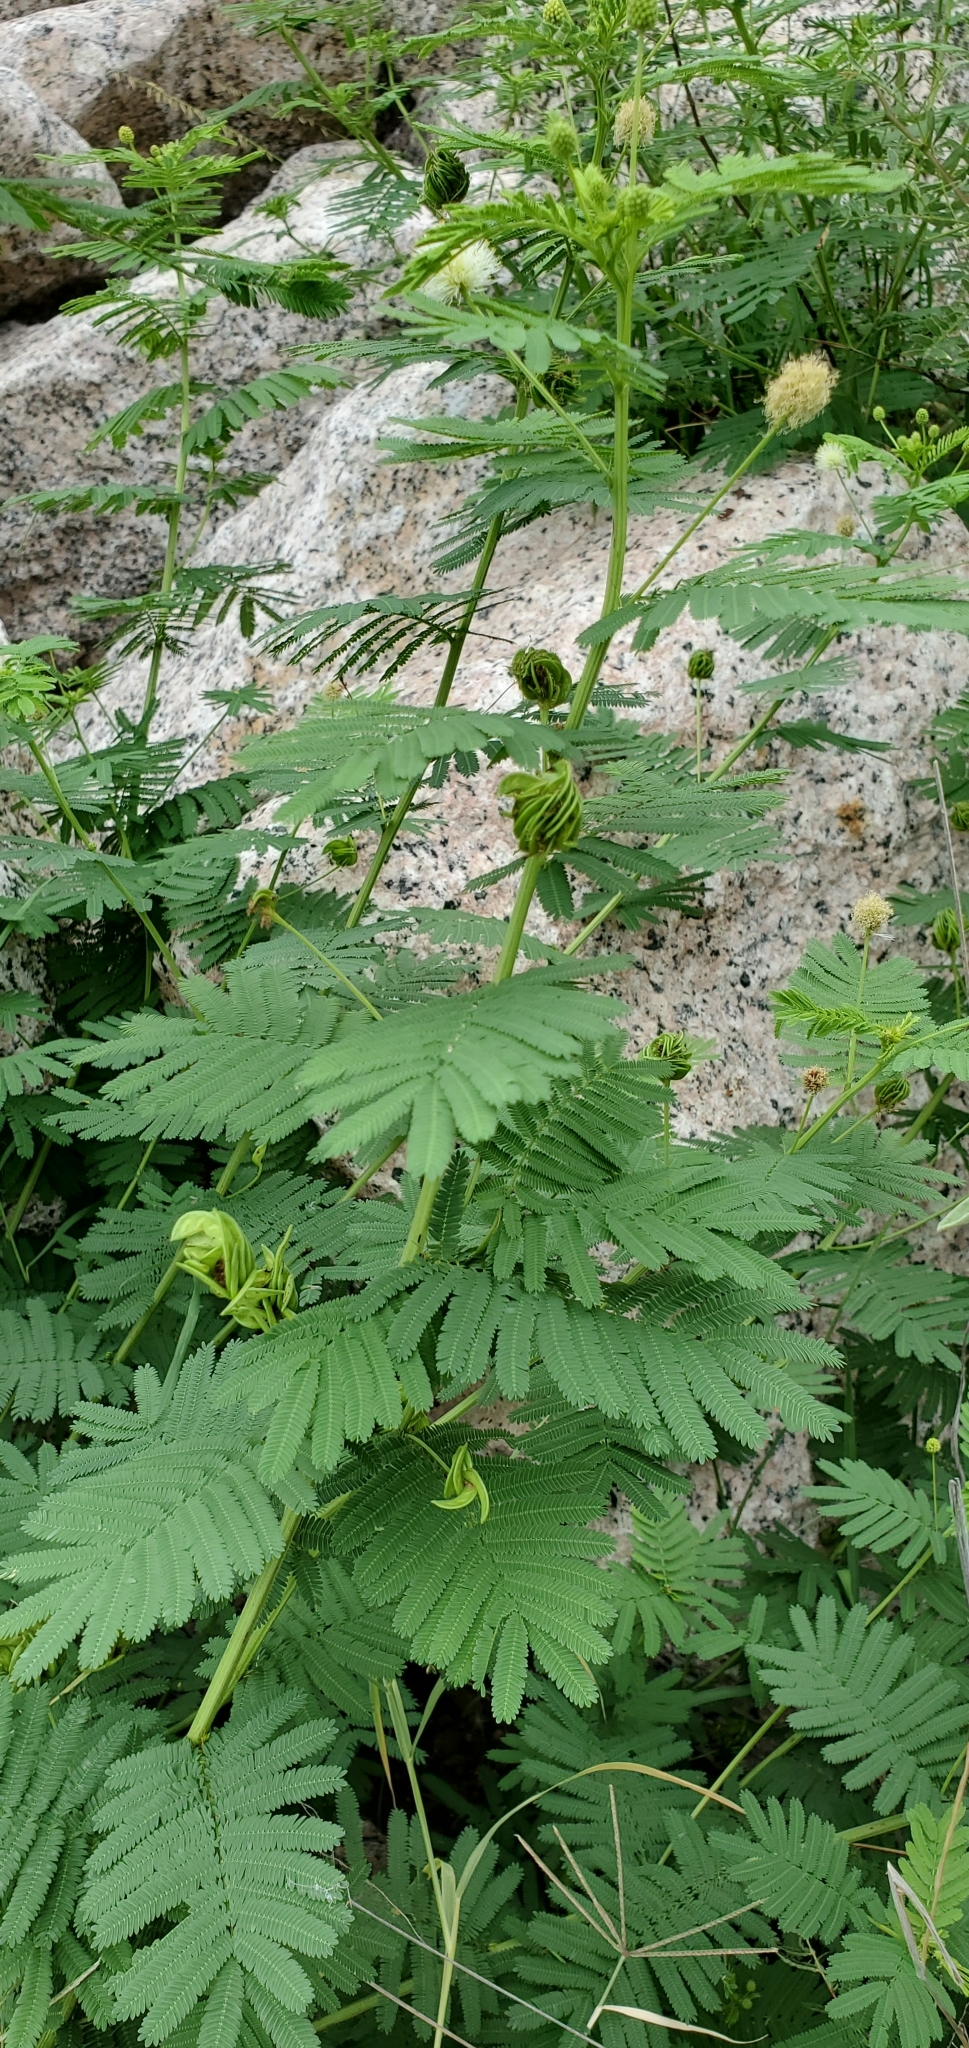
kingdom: Plantae
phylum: Tracheophyta
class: Magnoliopsida
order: Fabales
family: Fabaceae
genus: Desmanthus
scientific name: Desmanthus illinoensis
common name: Illinois bundle-flower
